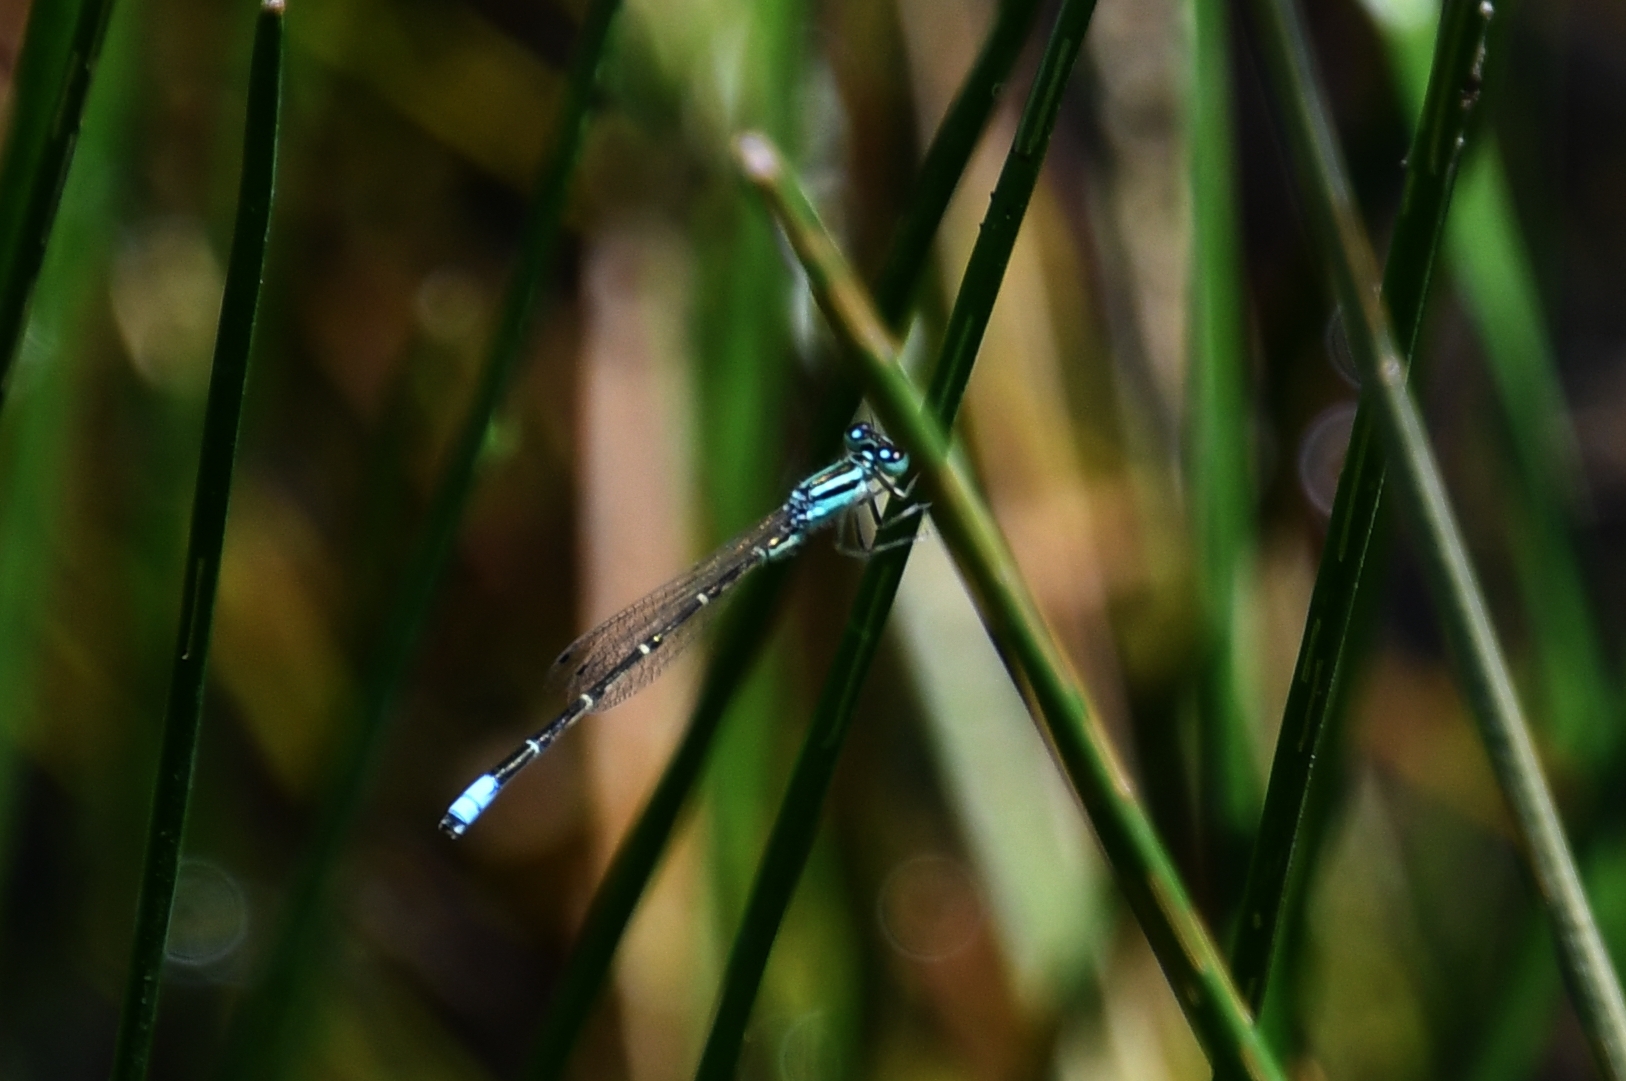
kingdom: Animalia
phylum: Arthropoda
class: Insecta
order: Odonata
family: Coenagrionidae
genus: Ischnura
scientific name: Ischnura demorsa
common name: Mexican forktail
